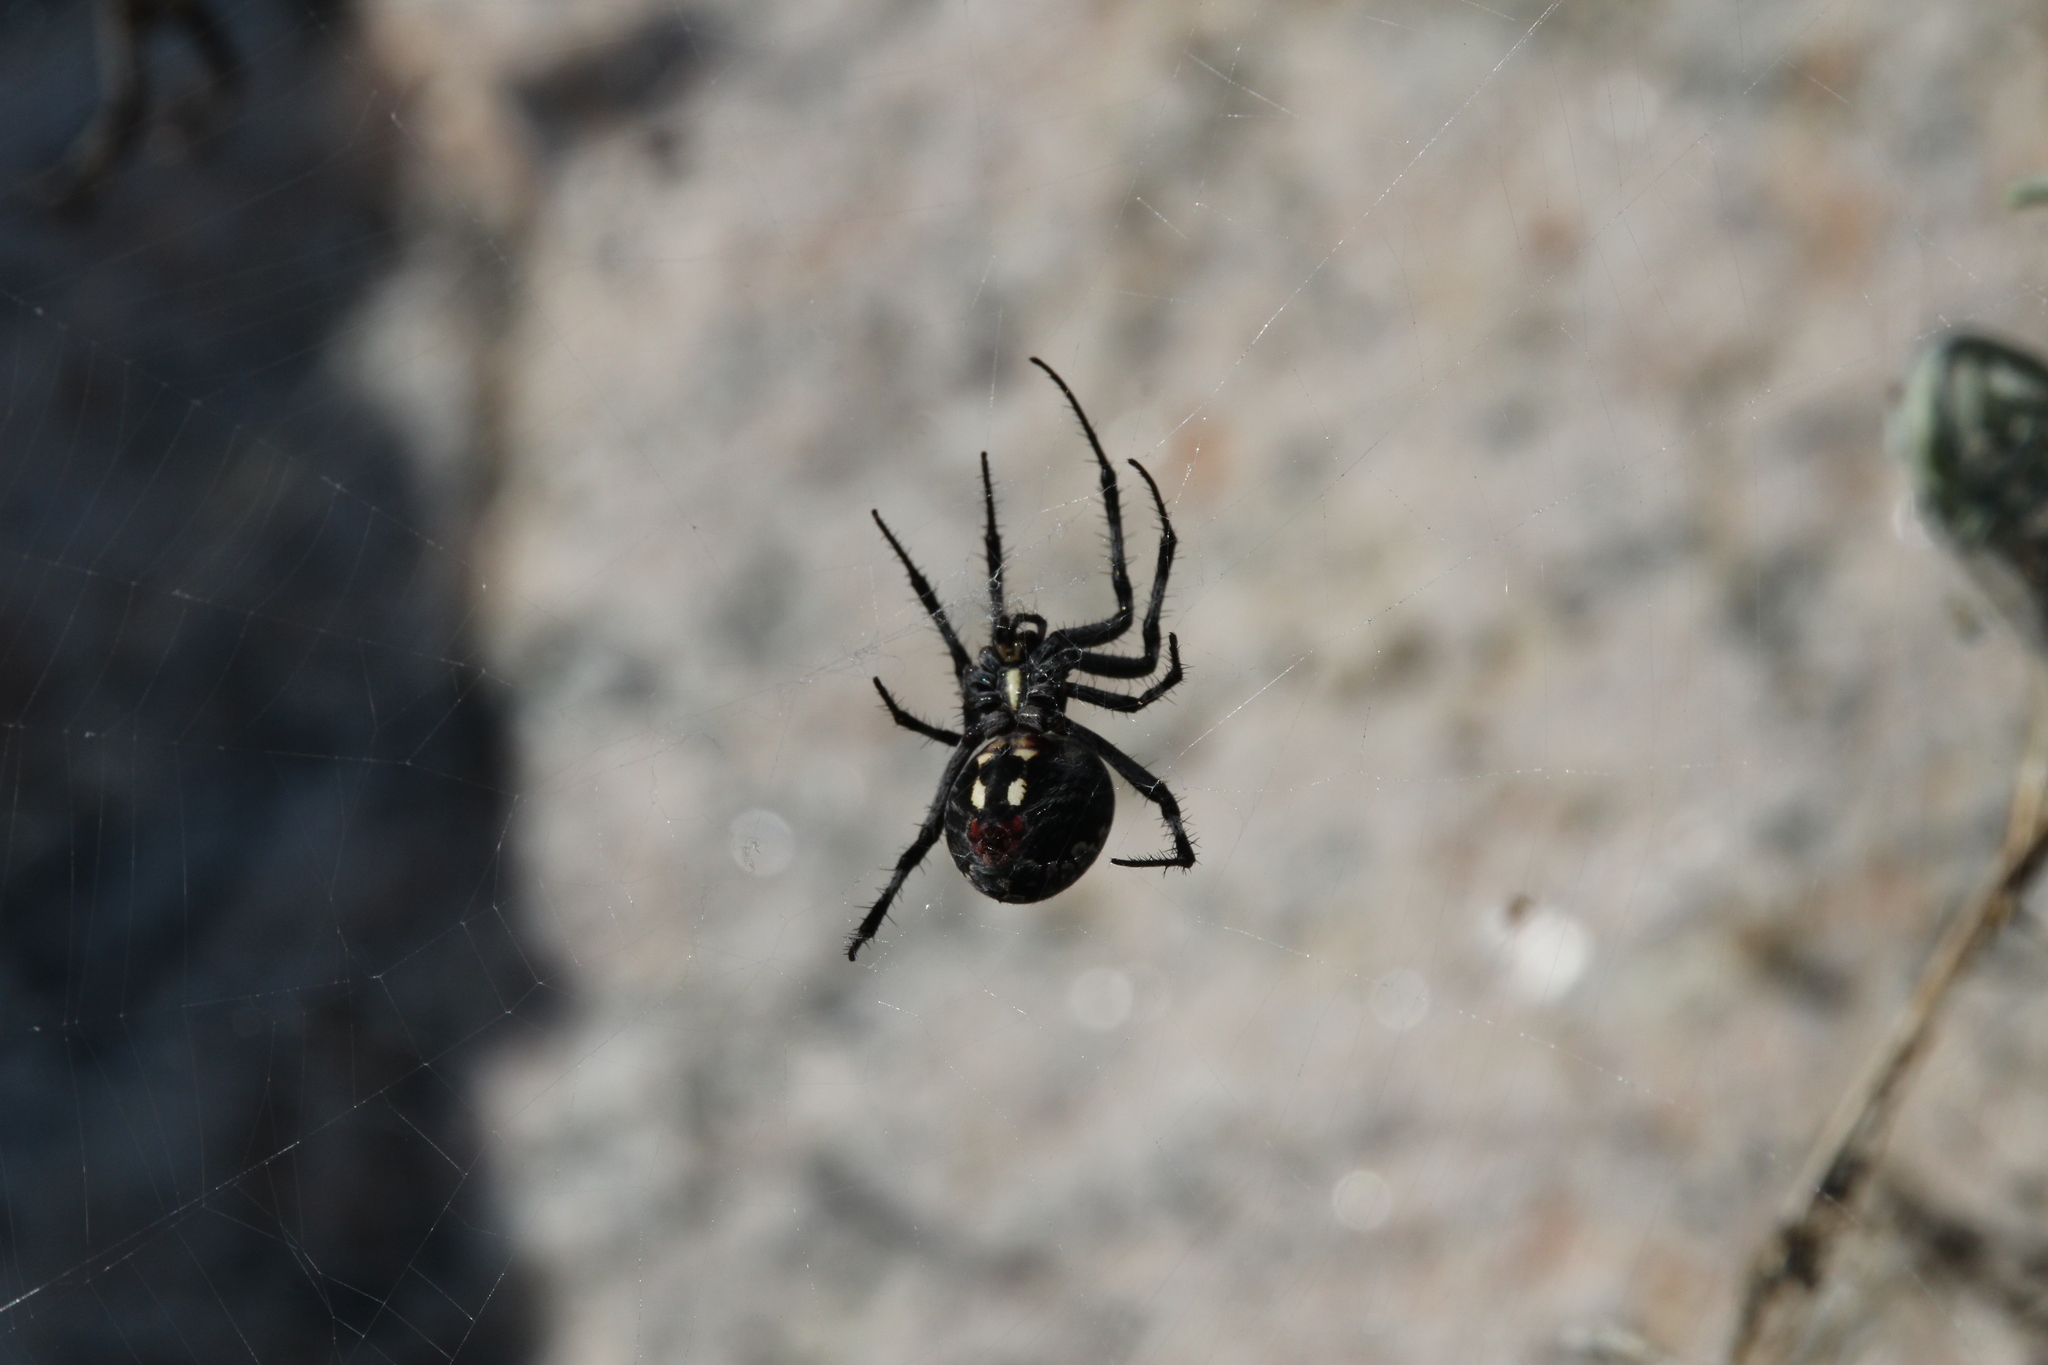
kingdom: Animalia
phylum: Arthropoda
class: Arachnida
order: Araneae
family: Araneidae
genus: Neoscona
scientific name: Neoscona oaxacensis
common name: Orb weavers
